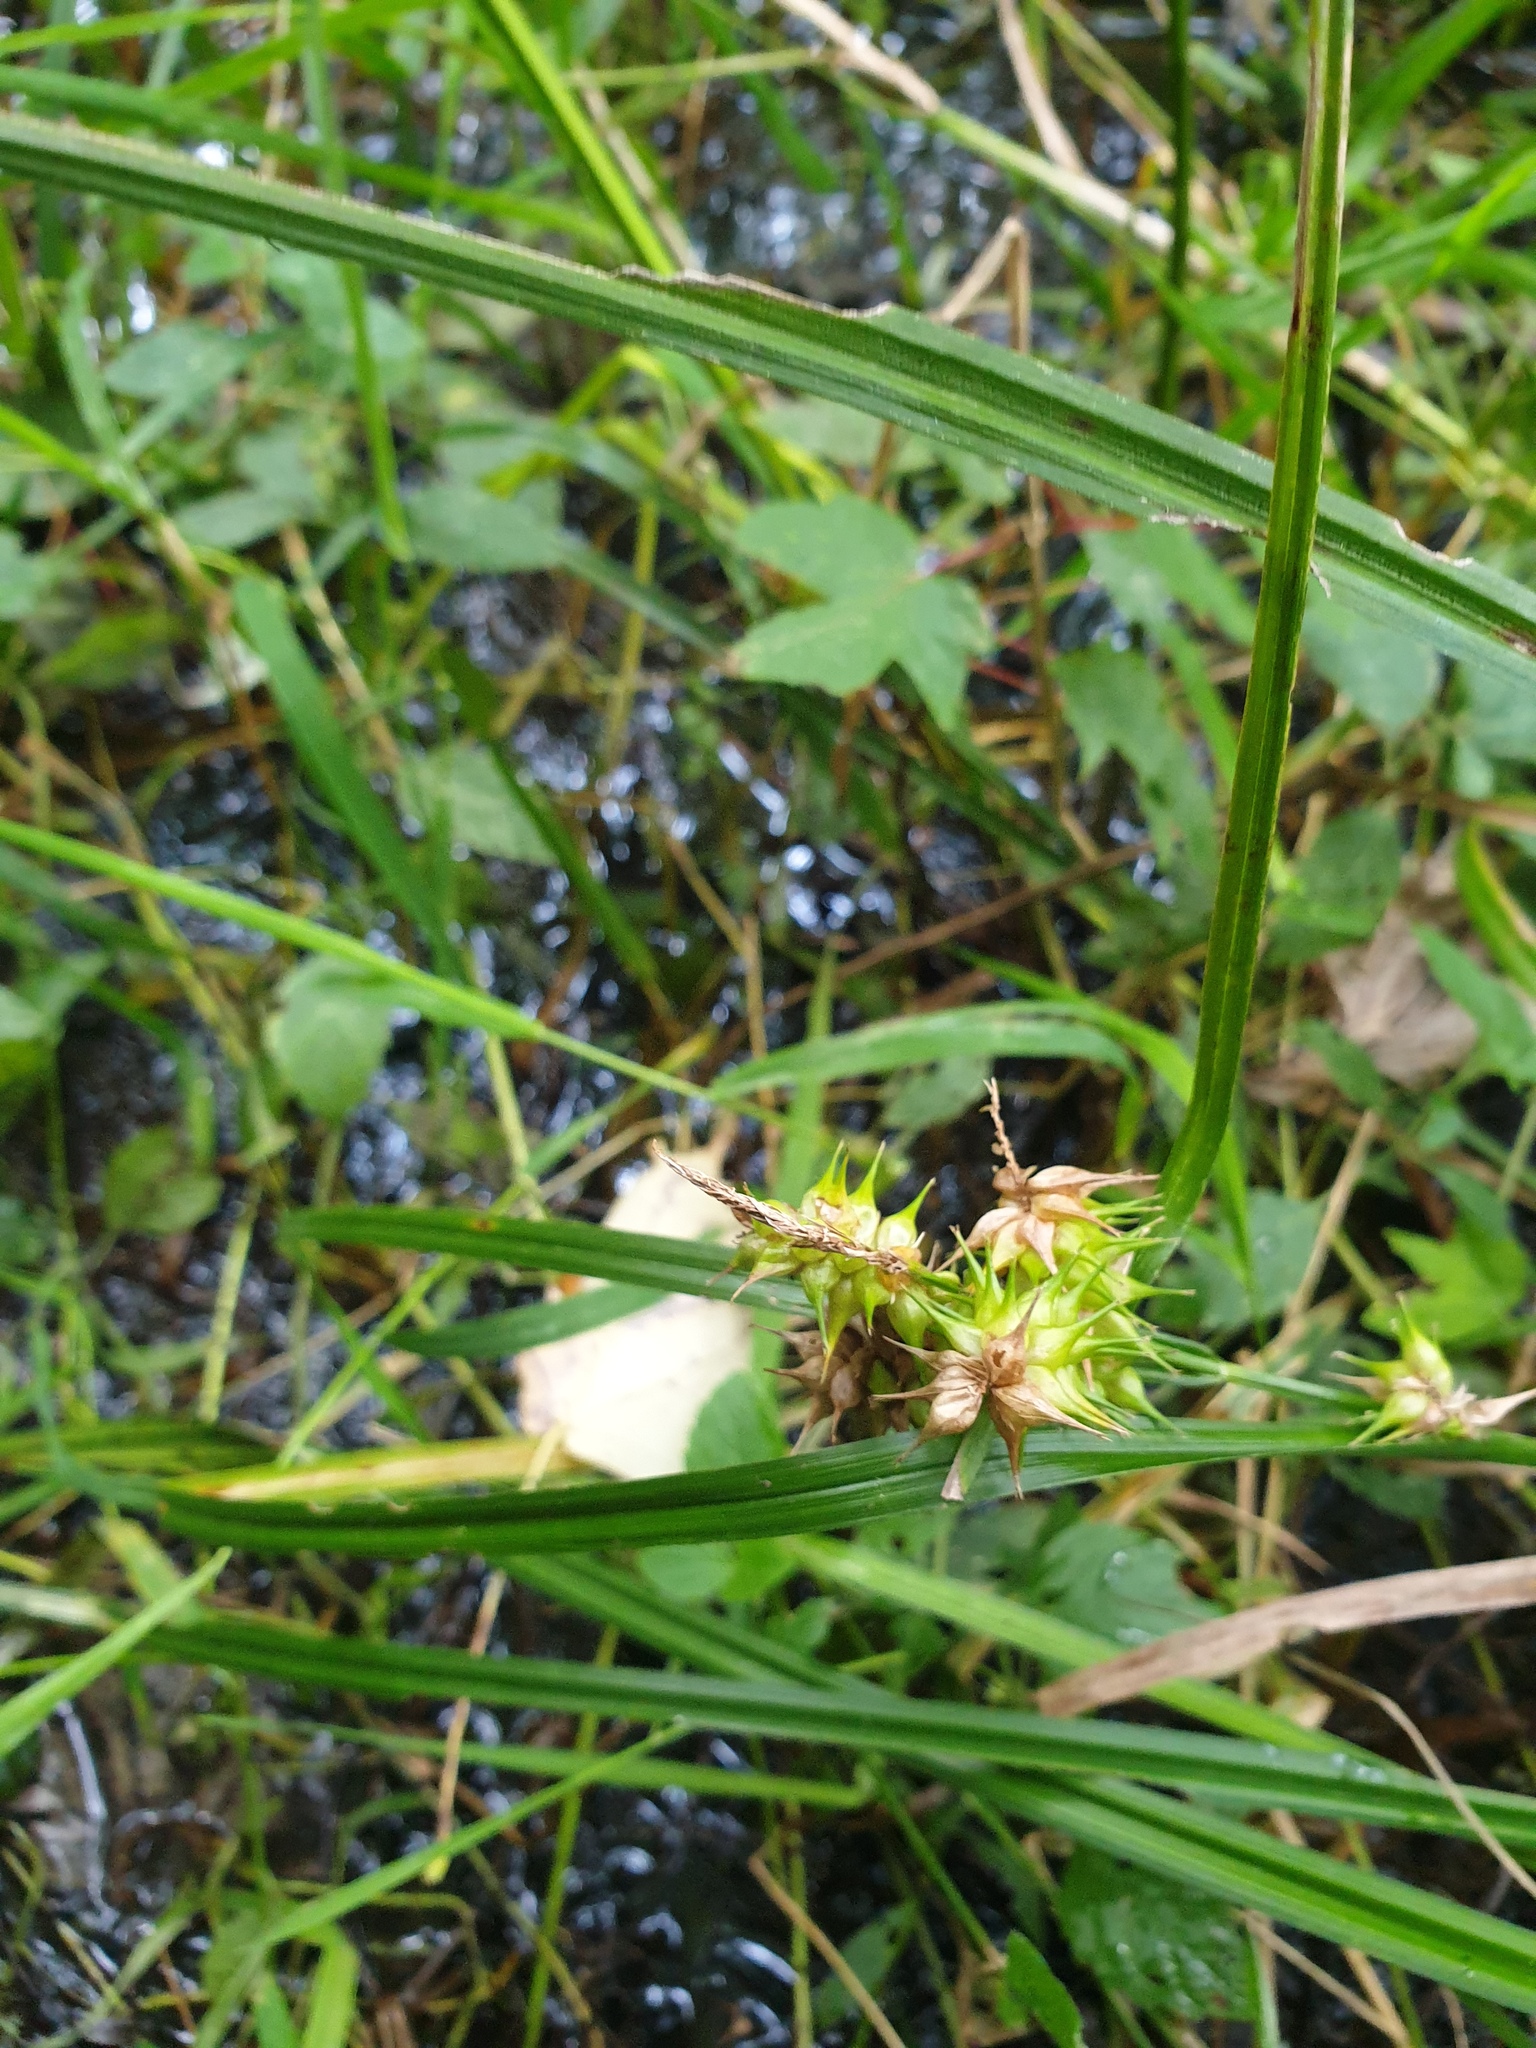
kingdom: Plantae
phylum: Tracheophyta
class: Liliopsida
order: Poales
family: Cyperaceae
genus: Carex
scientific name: Carex retrorsa
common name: Knot-sheath sedge
